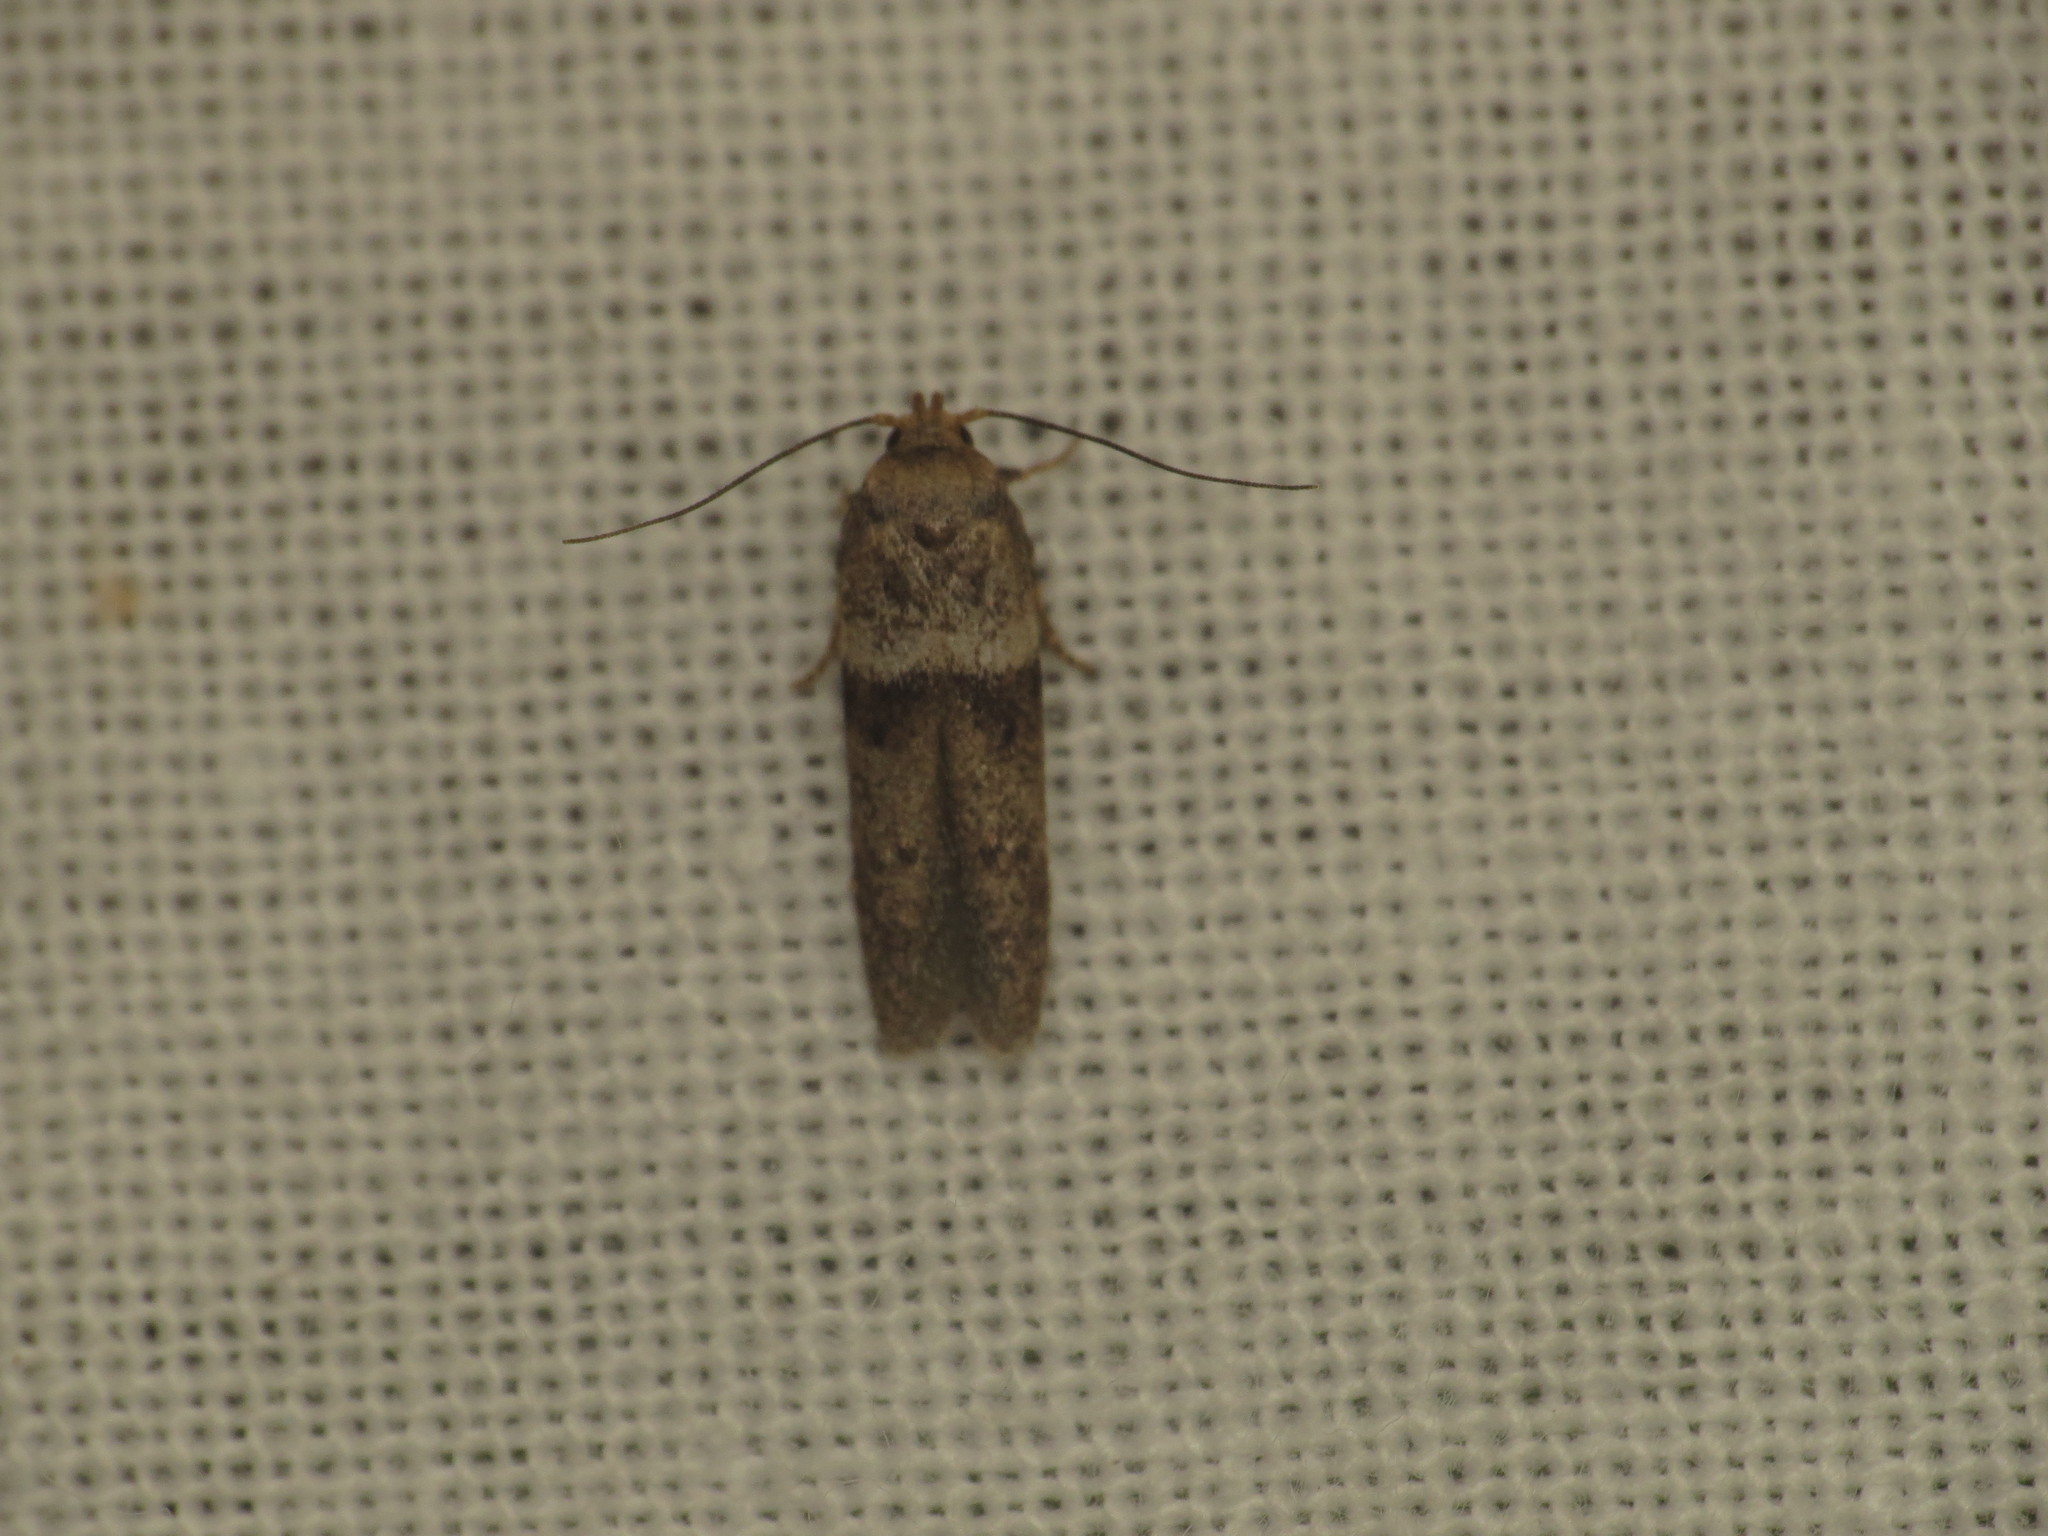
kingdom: Animalia
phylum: Arthropoda
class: Insecta
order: Lepidoptera
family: Blastobasidae
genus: Blastobasis
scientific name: Blastobasis scotia
